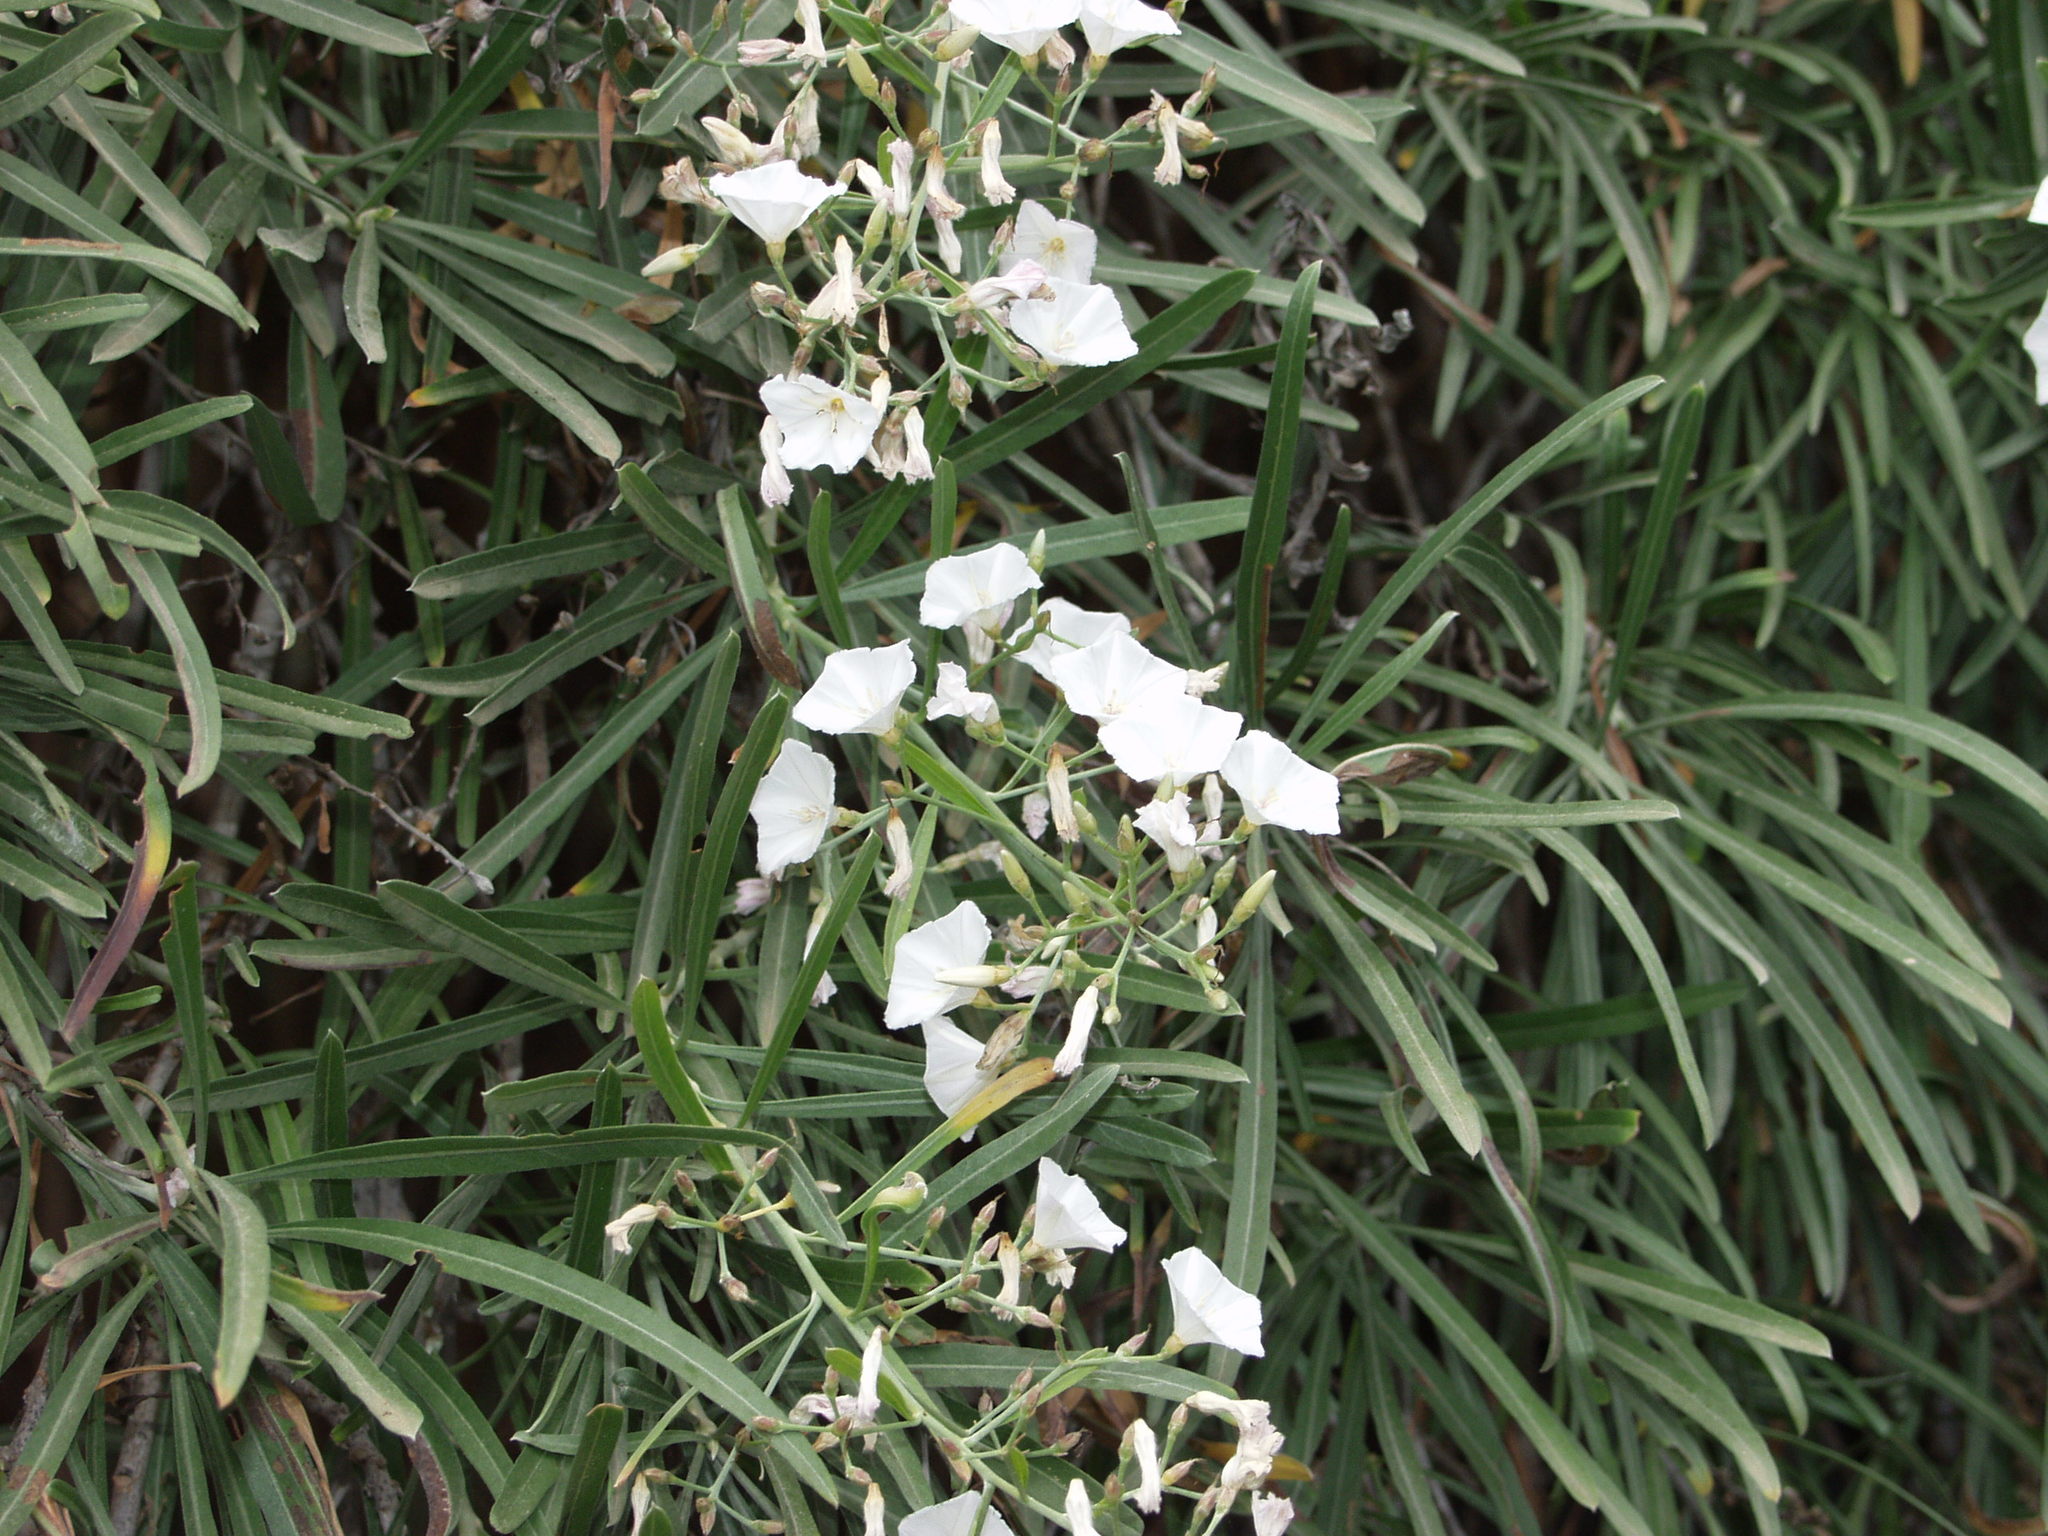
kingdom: Plantae
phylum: Tracheophyta
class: Magnoliopsida
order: Solanales
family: Convolvulaceae
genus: Convolvulus
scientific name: Convolvulus floridus
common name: Guadil
